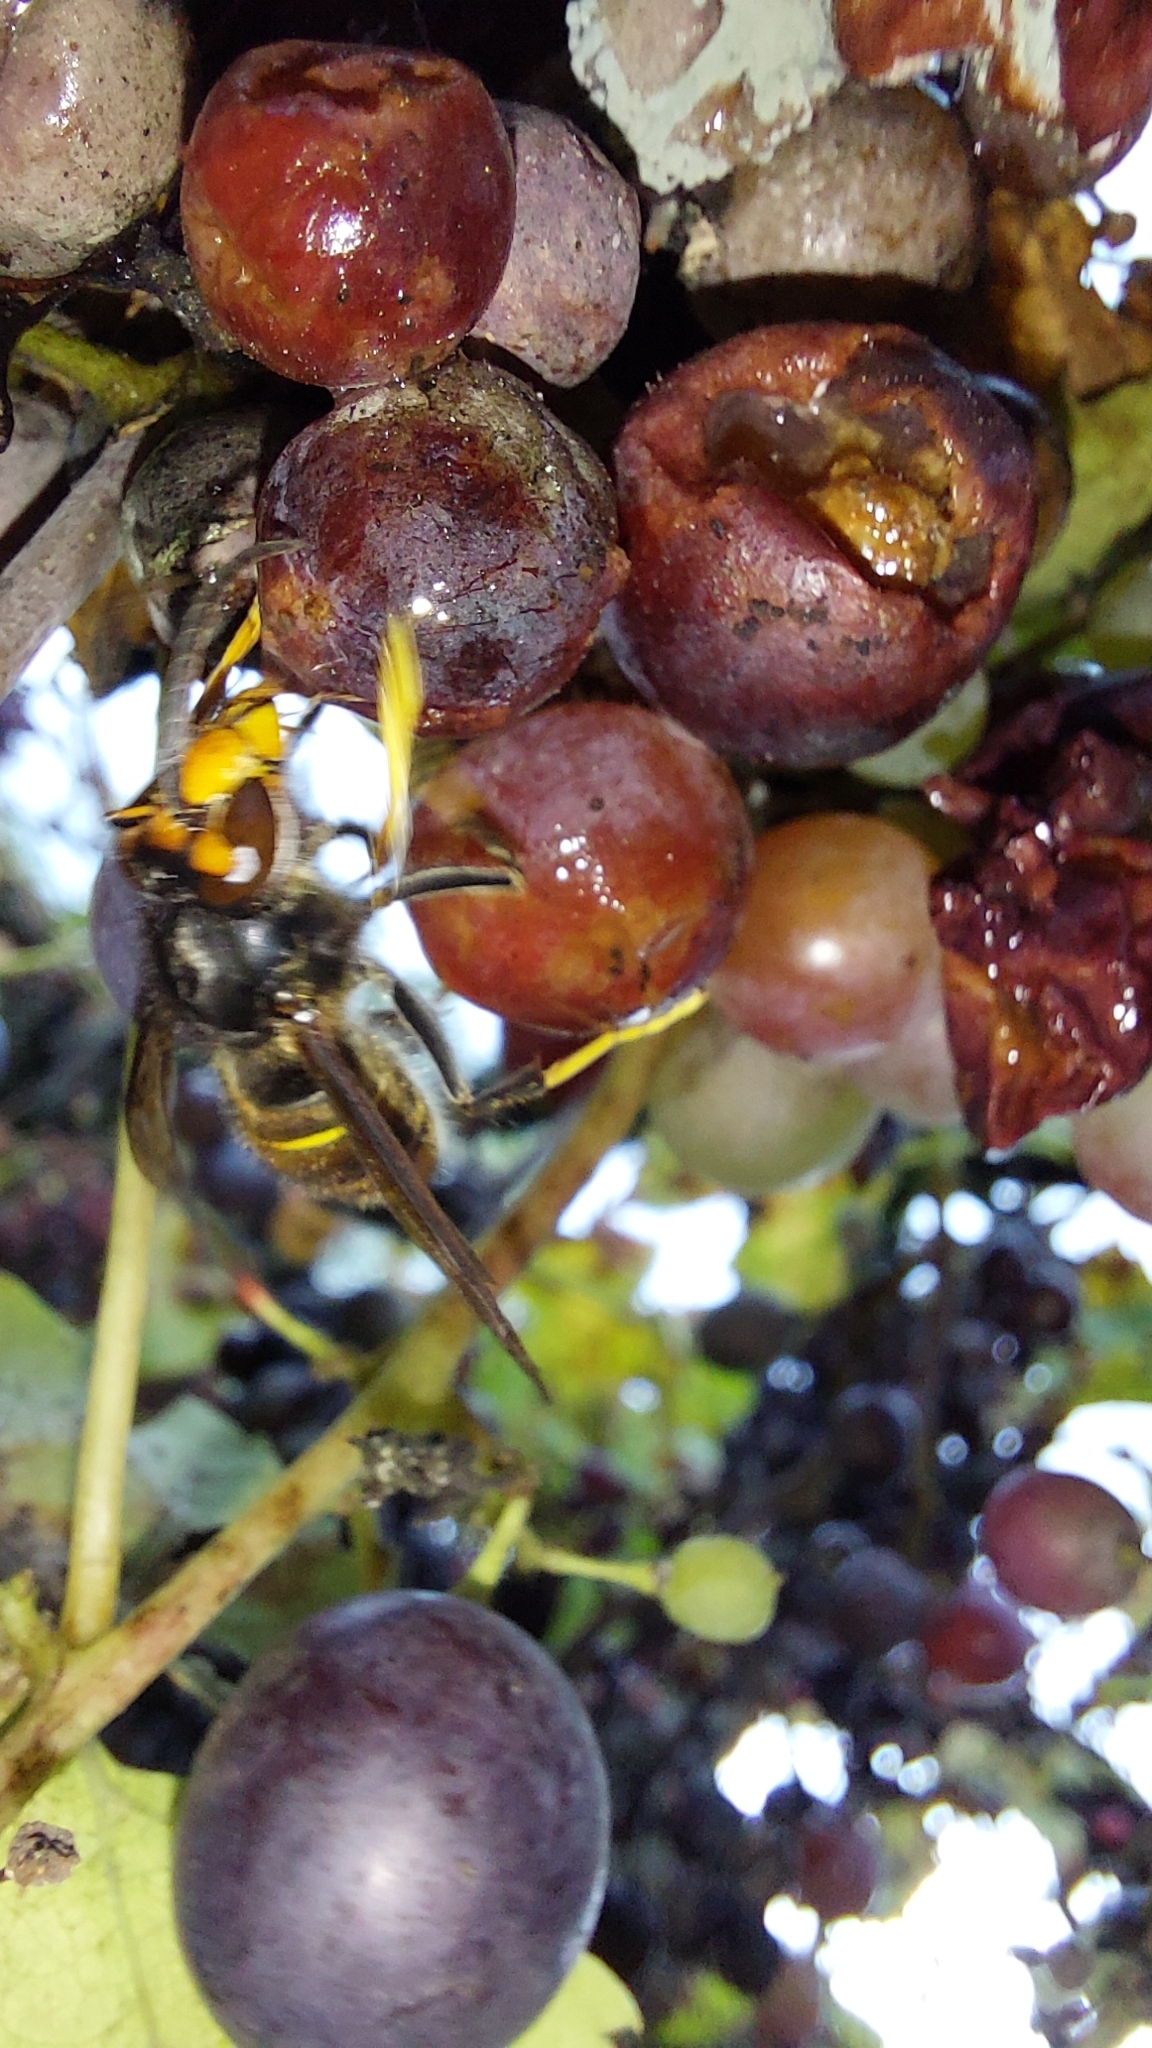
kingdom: Animalia
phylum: Arthropoda
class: Insecta
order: Hymenoptera
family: Vespidae
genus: Vespa
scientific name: Vespa velutina
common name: Asian hornet
